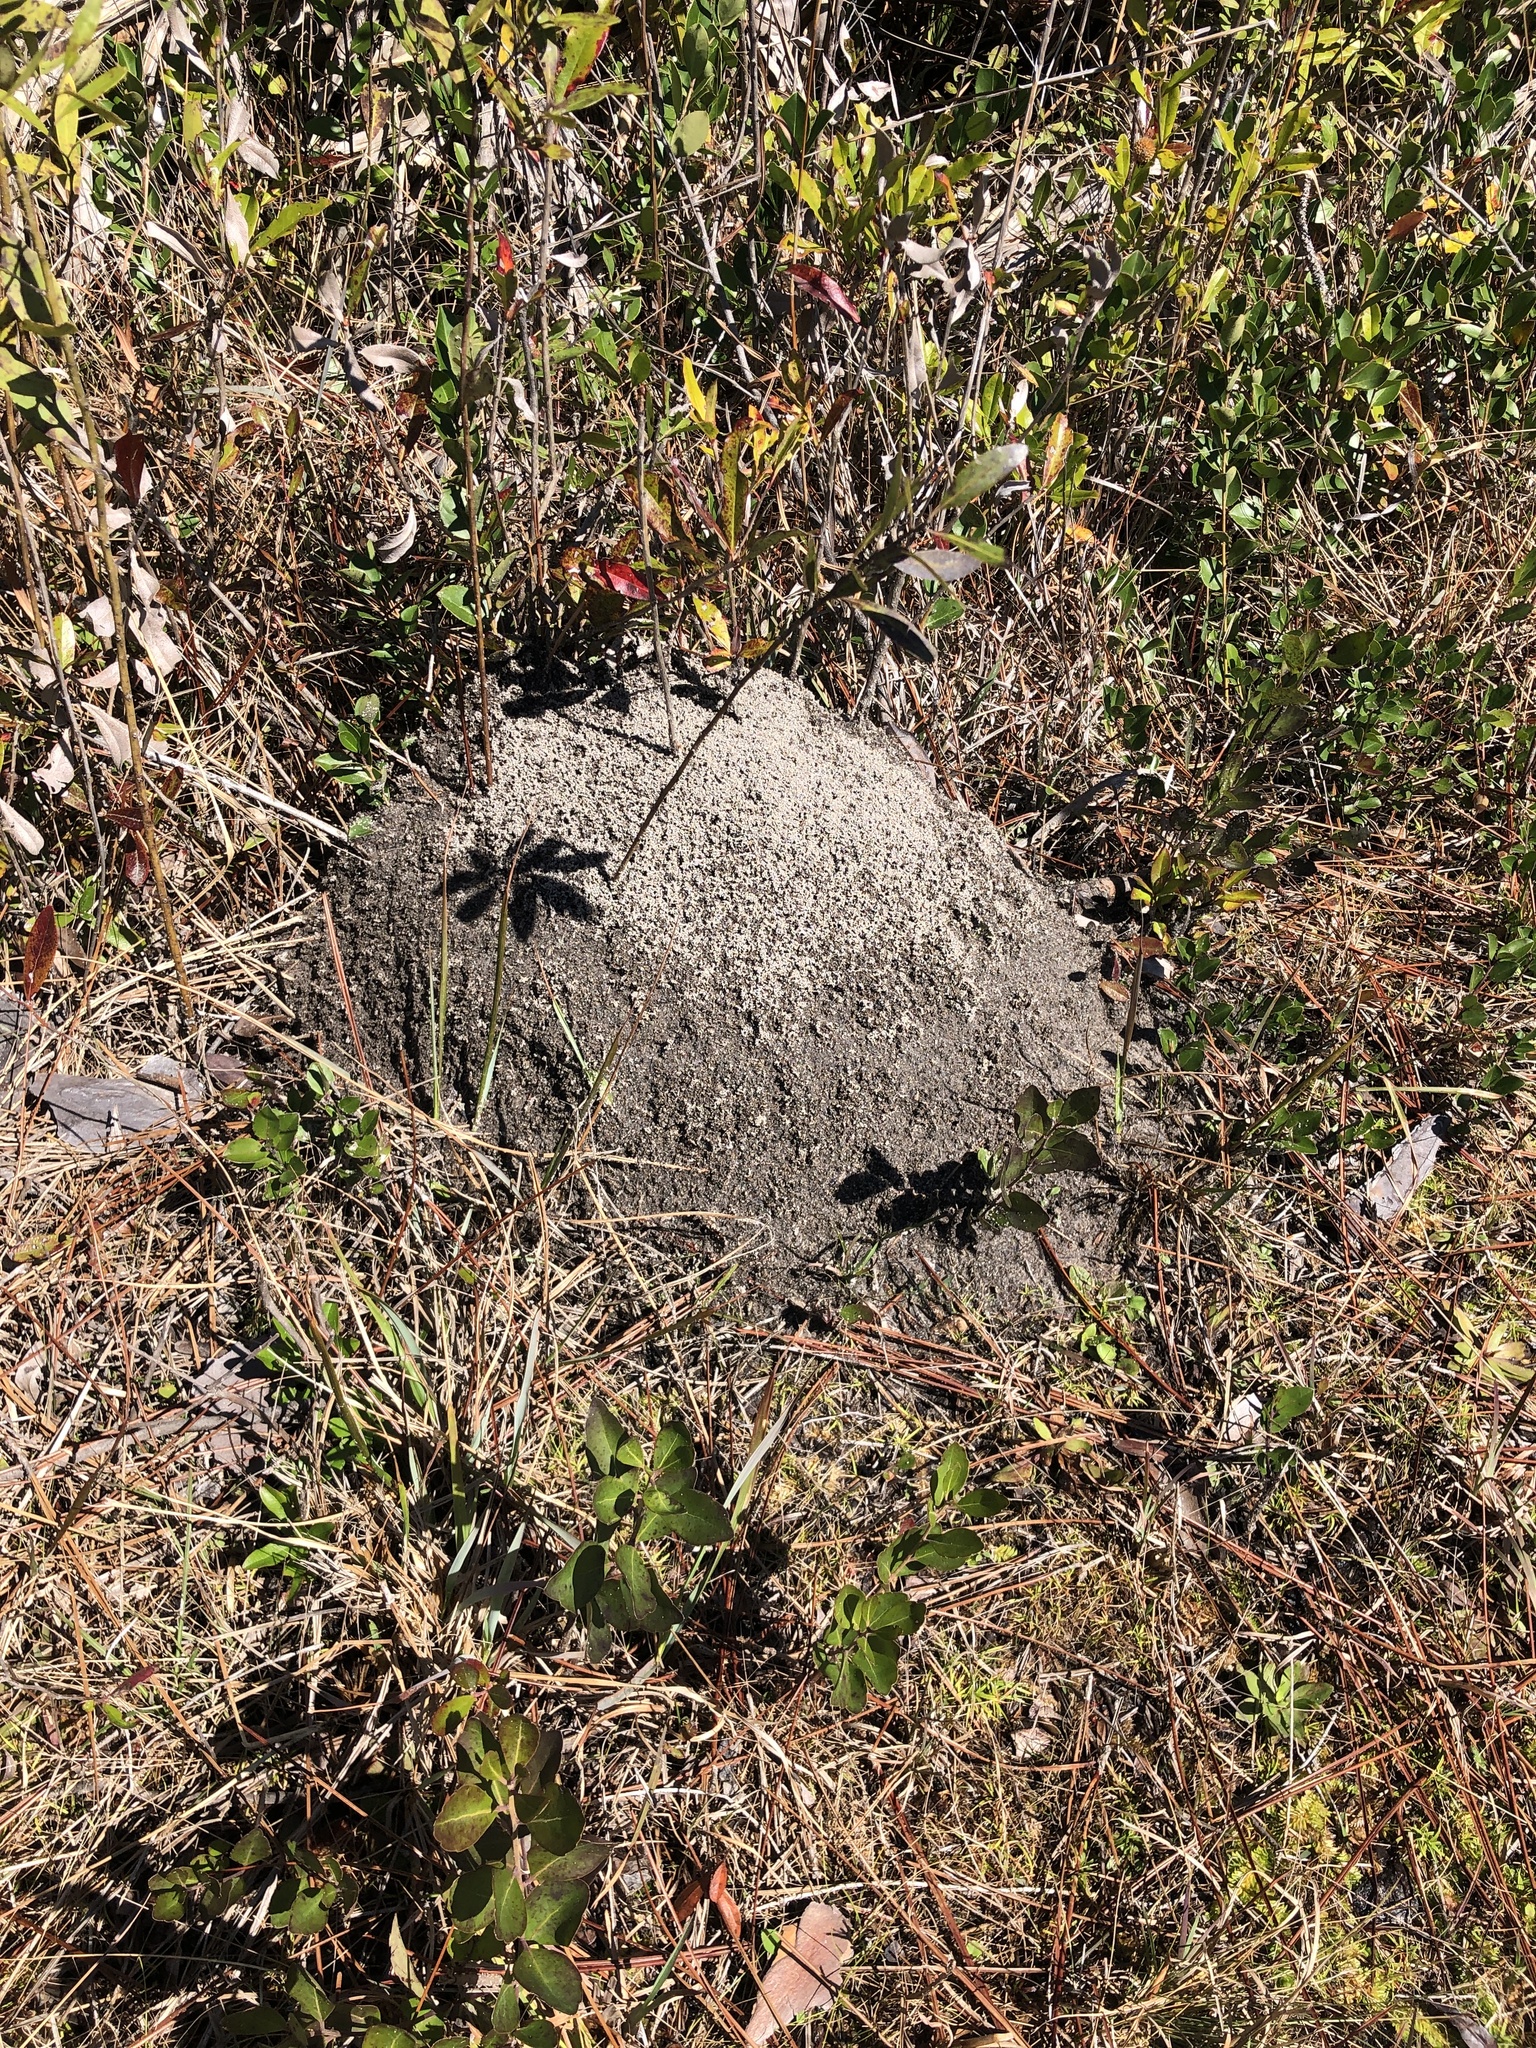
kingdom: Animalia
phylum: Arthropoda
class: Insecta
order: Hymenoptera
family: Formicidae
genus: Solenopsis
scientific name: Solenopsis invicta
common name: Red imported fire ant
